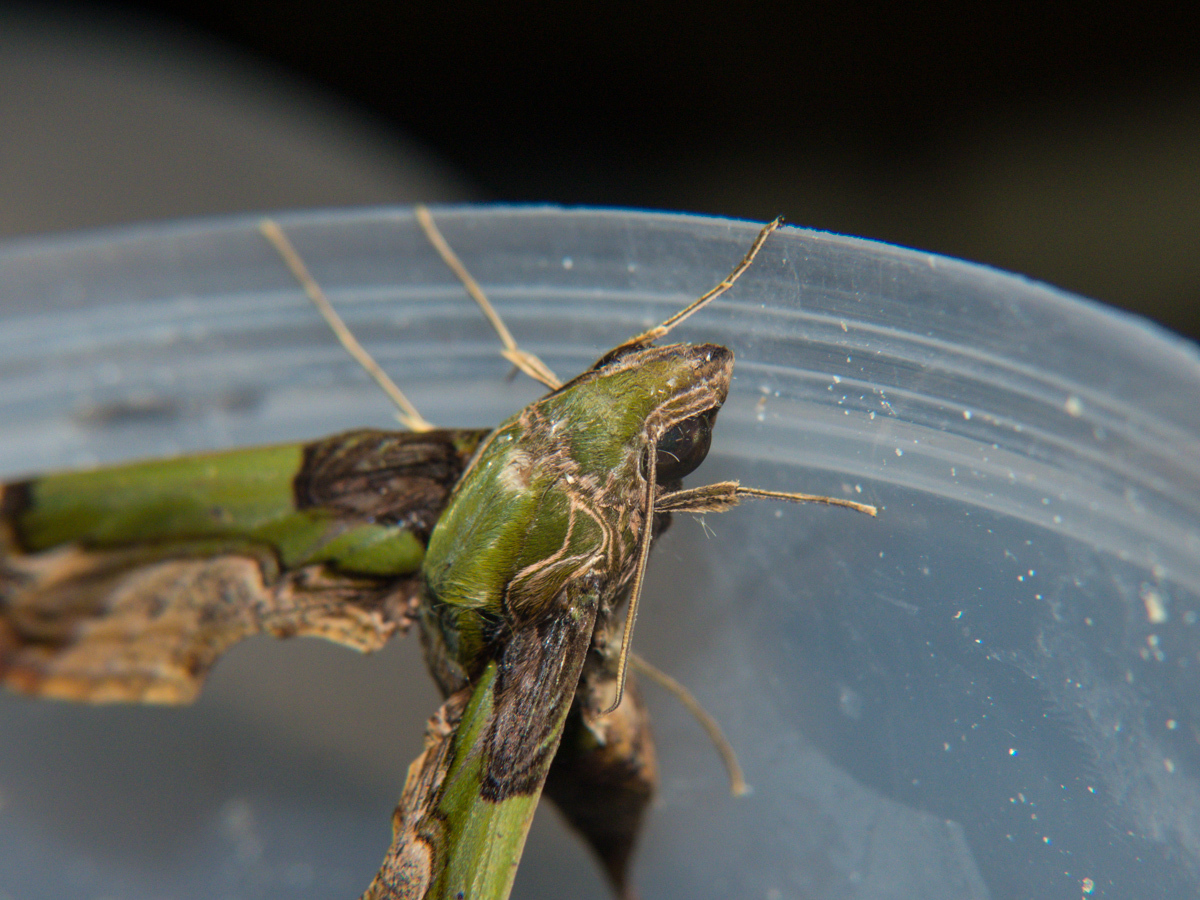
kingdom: Animalia
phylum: Arthropoda
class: Insecta
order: Lepidoptera
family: Sphingidae
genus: Eupanacra
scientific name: Eupanacra busiris
